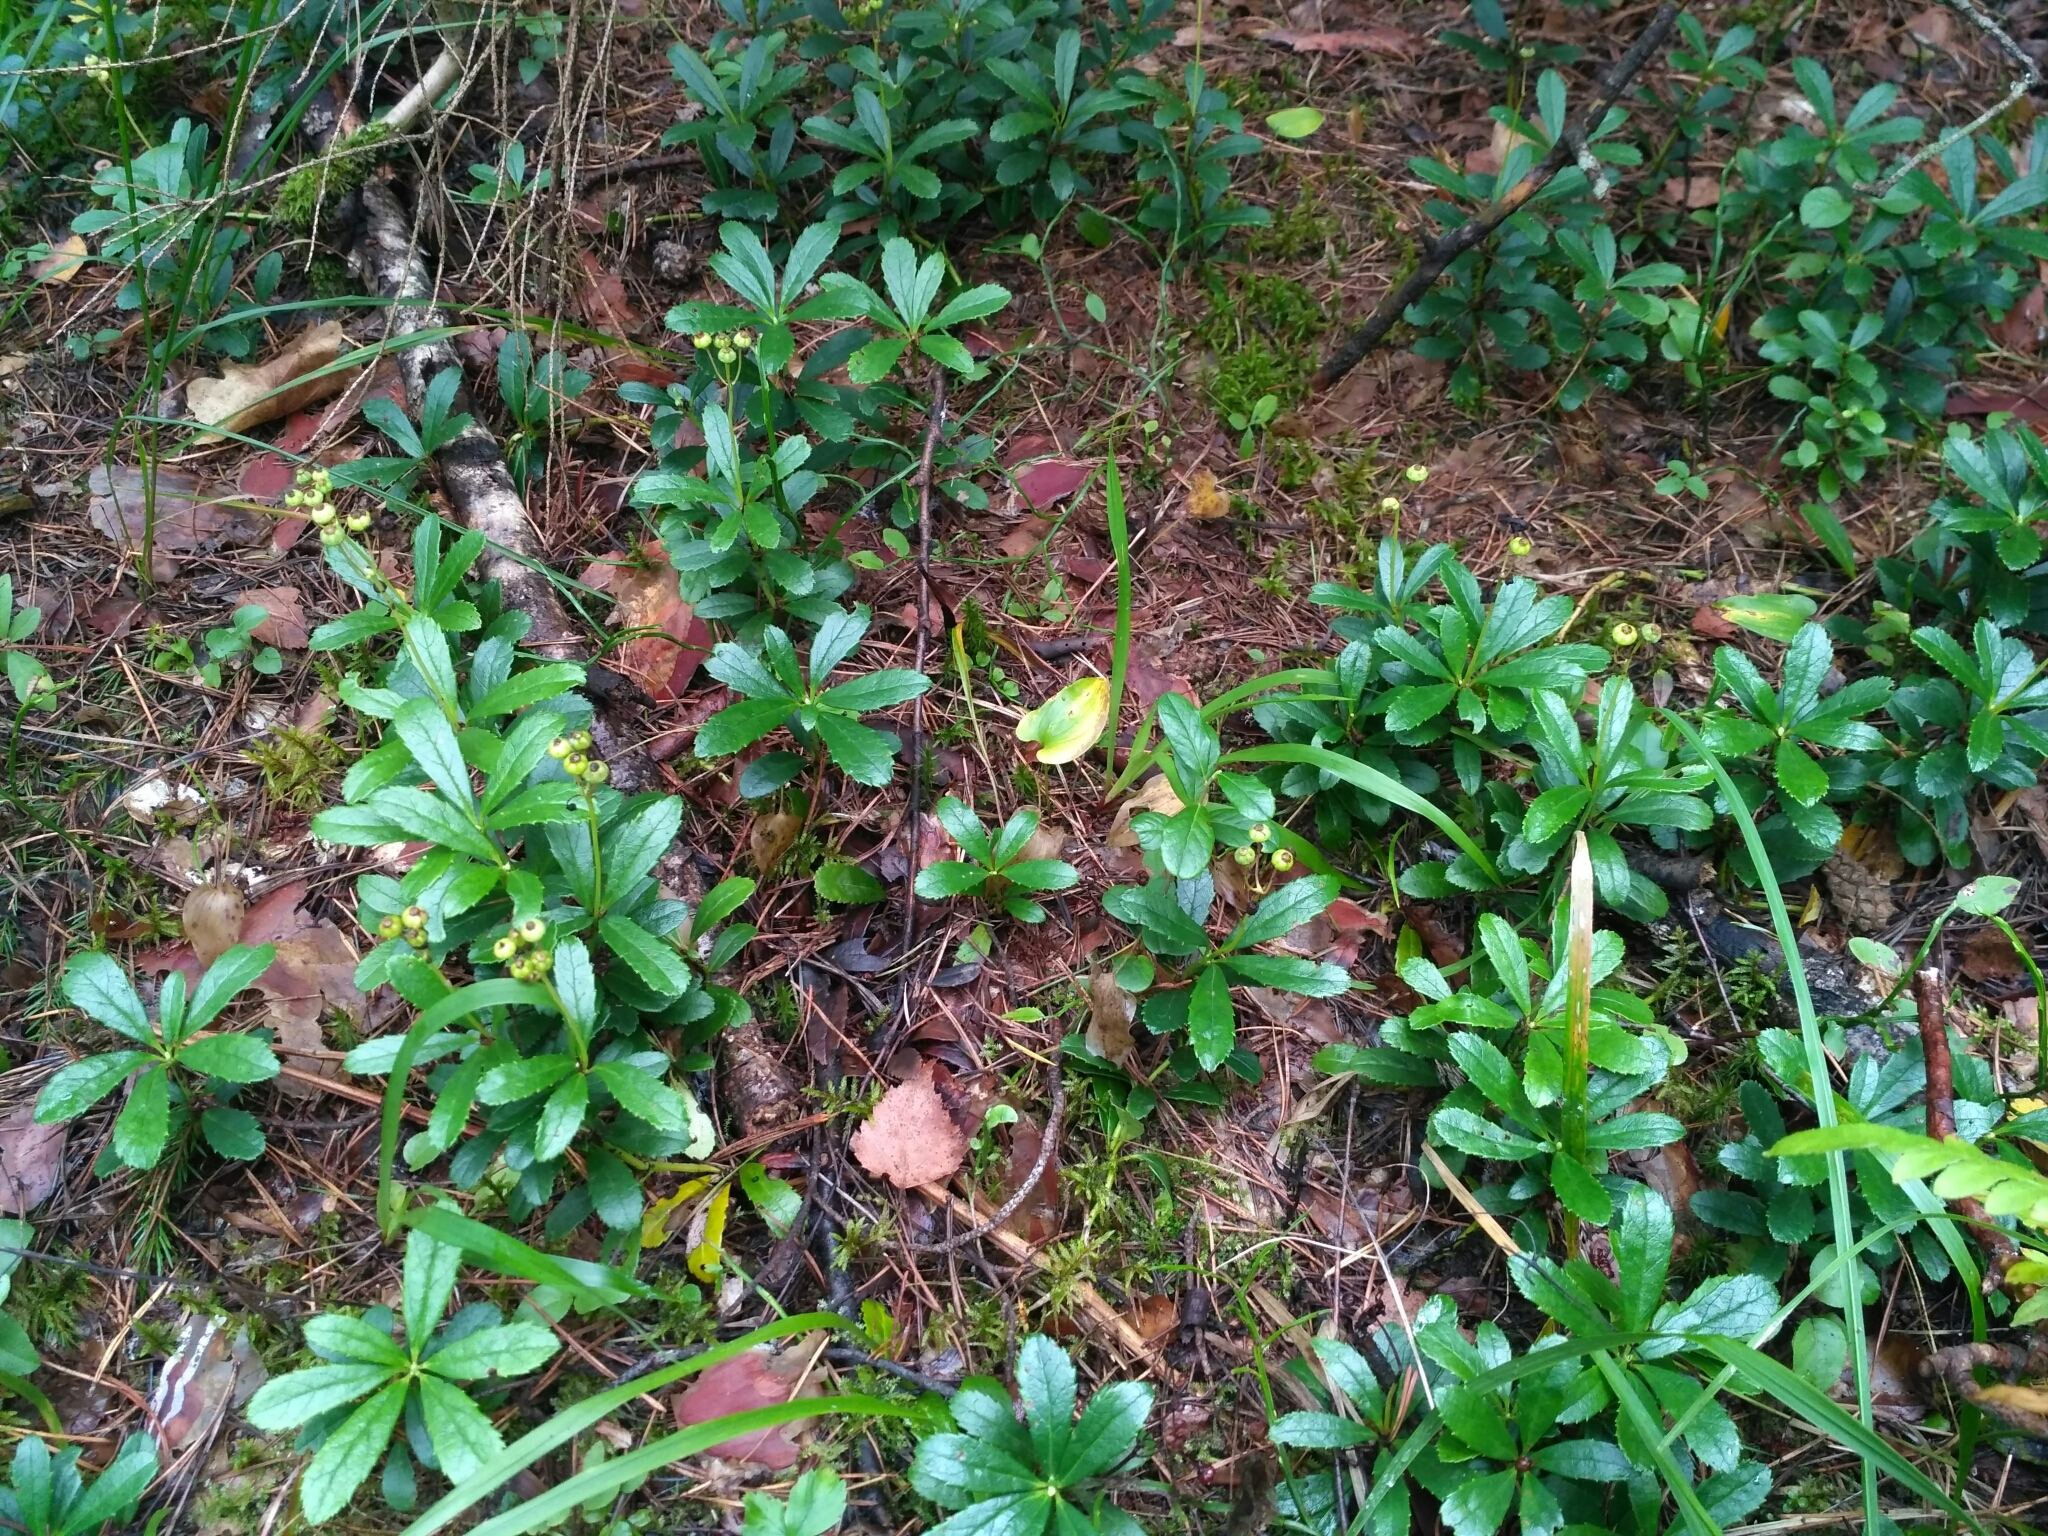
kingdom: Plantae
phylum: Tracheophyta
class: Magnoliopsida
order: Ericales
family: Ericaceae
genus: Chimaphila
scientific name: Chimaphila umbellata
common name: Pipsissewa
